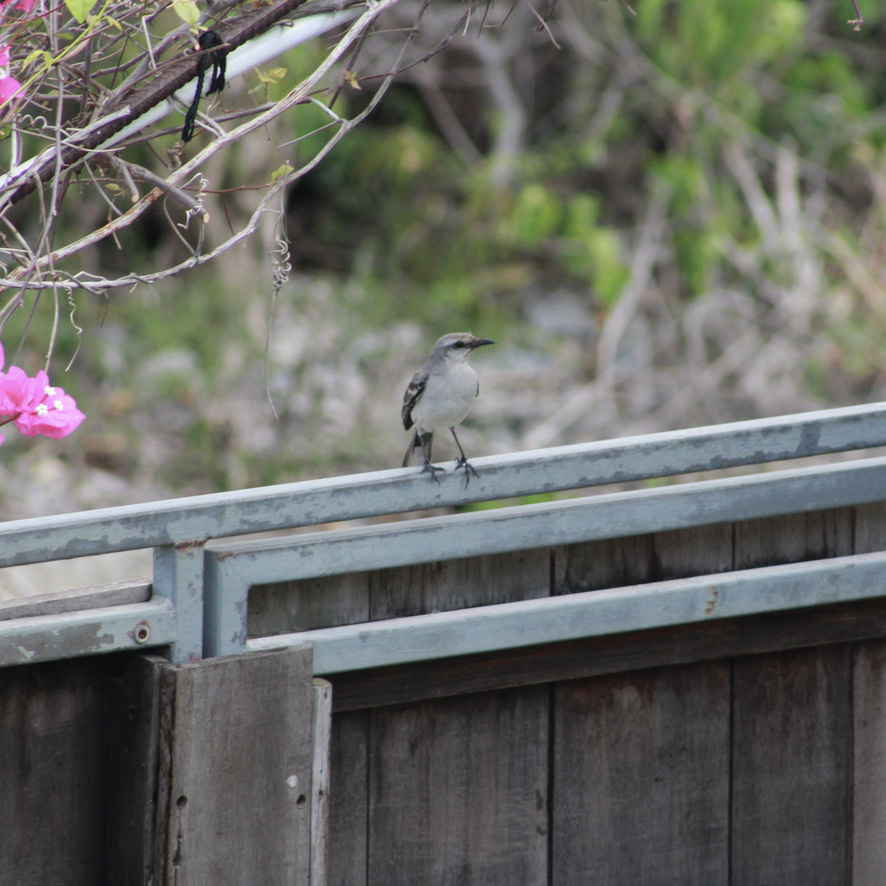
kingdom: Animalia
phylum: Chordata
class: Aves
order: Passeriformes
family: Mimidae
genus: Mimus
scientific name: Mimus gilvus
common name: Tropical mockingbird
